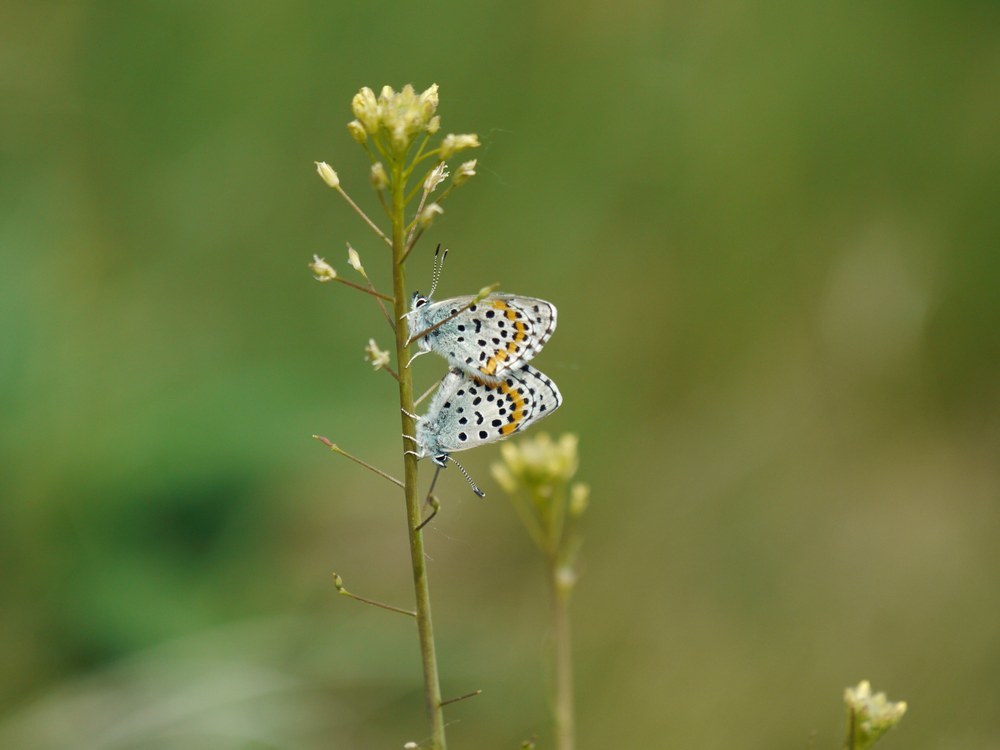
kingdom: Animalia
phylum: Arthropoda
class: Insecta
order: Lepidoptera
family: Lycaenidae
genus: Pseudophilotes
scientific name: Pseudophilotes bavius
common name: Bavius blue
